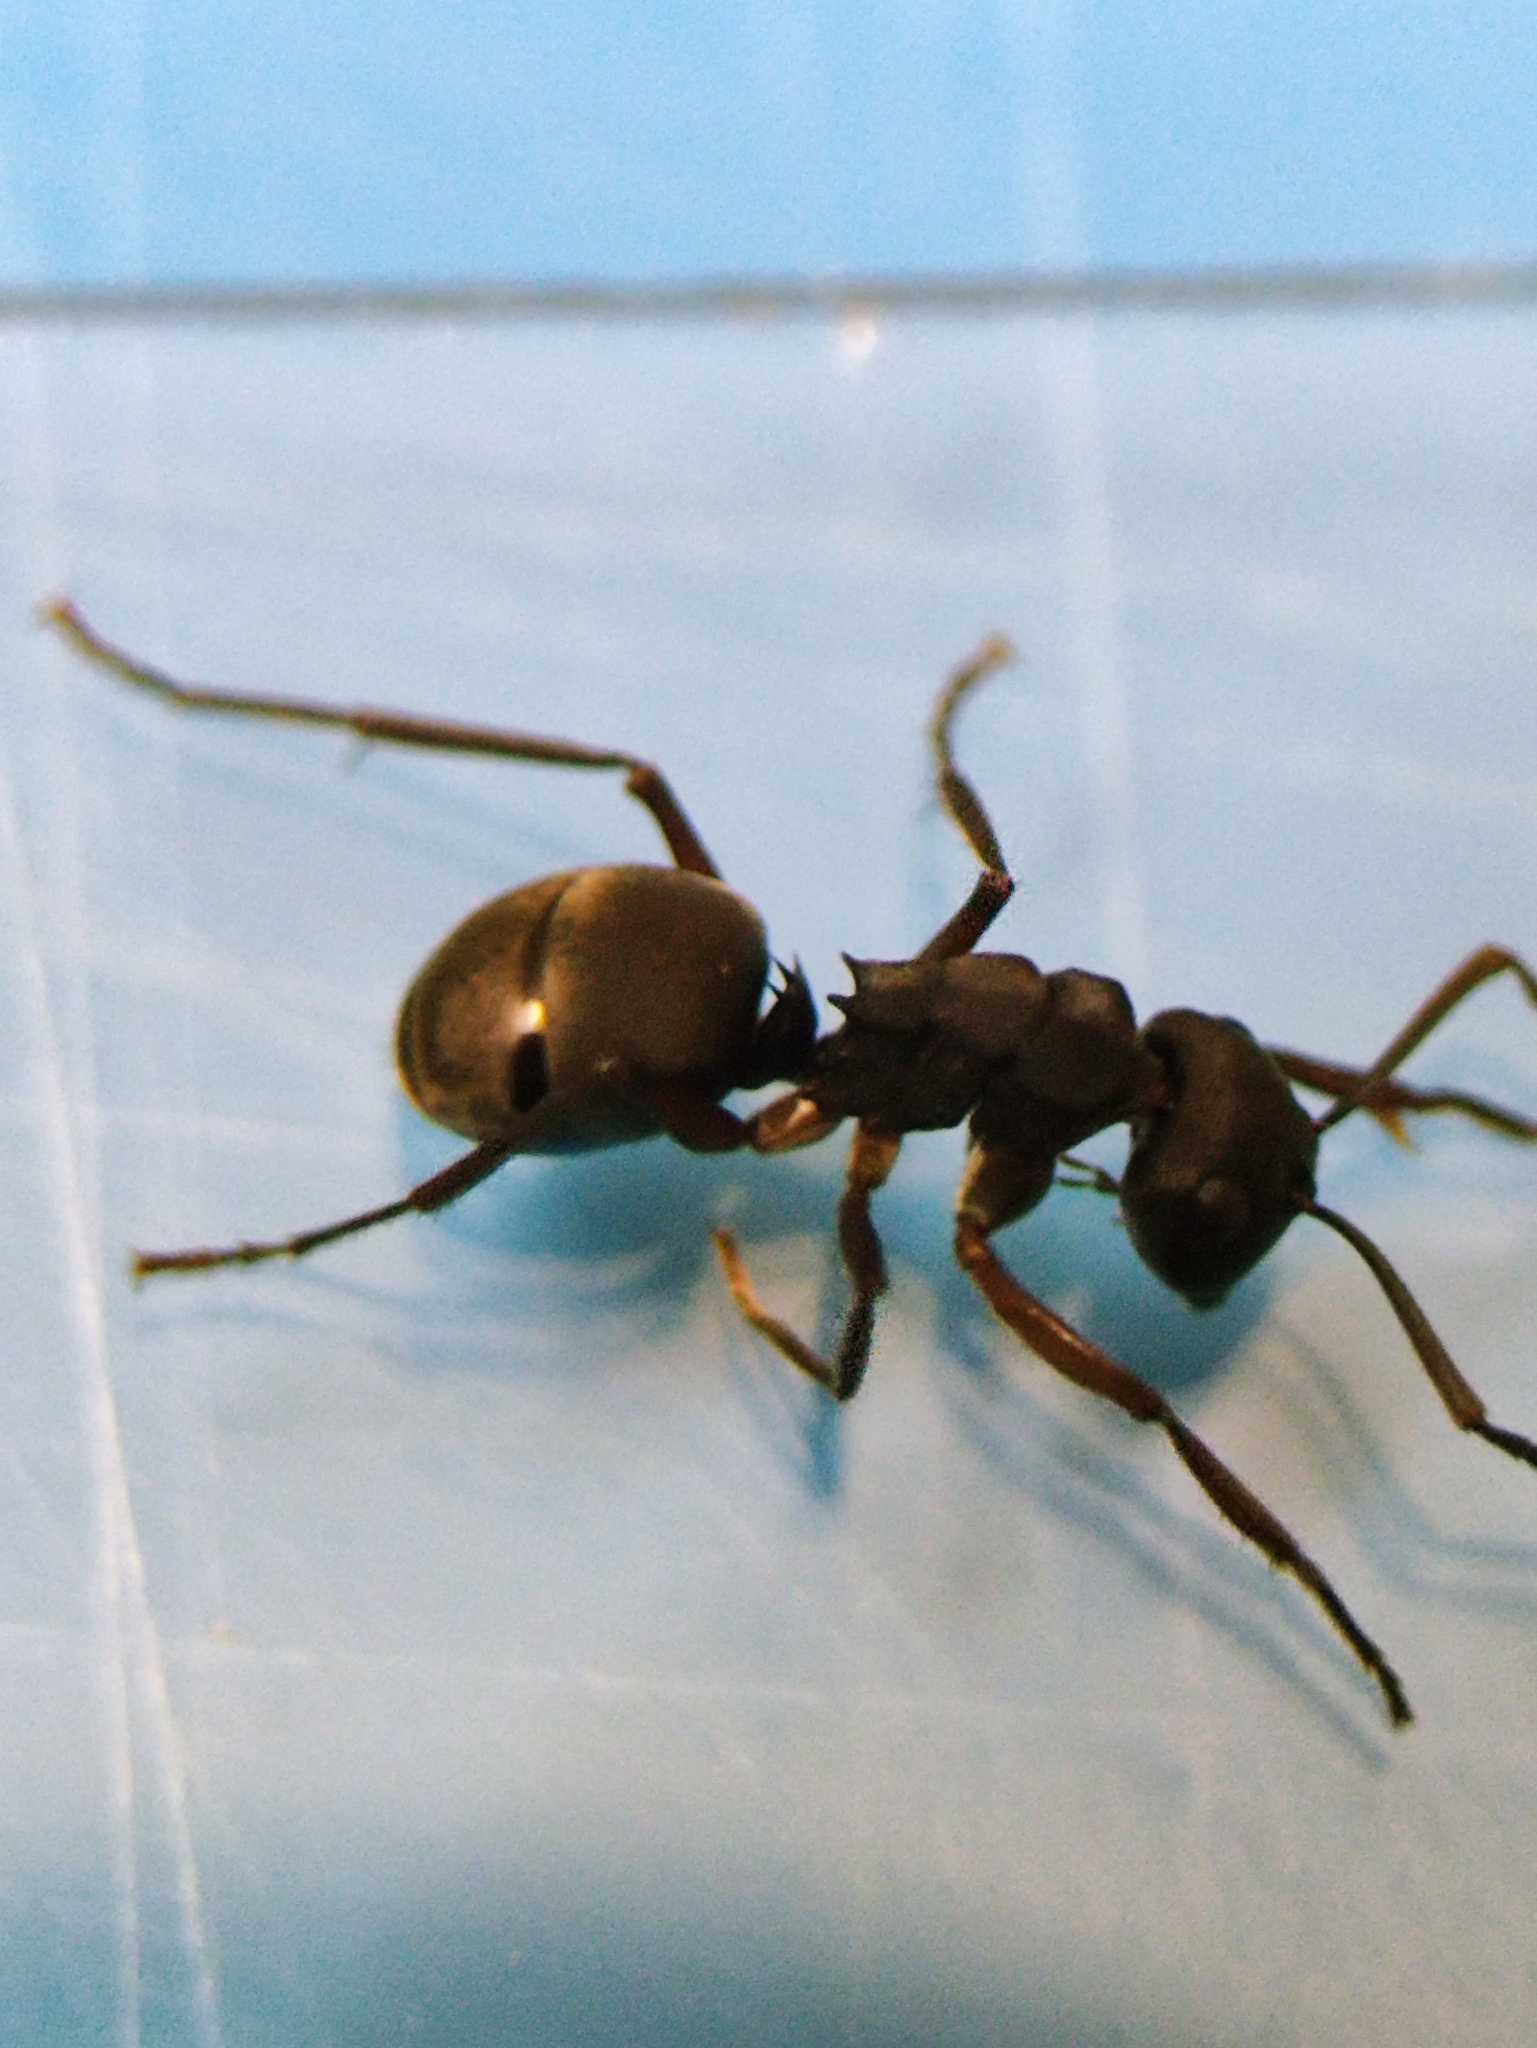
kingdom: Animalia
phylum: Arthropoda
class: Insecta
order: Hymenoptera
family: Formicidae
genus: Polyrhachis
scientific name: Polyrhachis exercita
